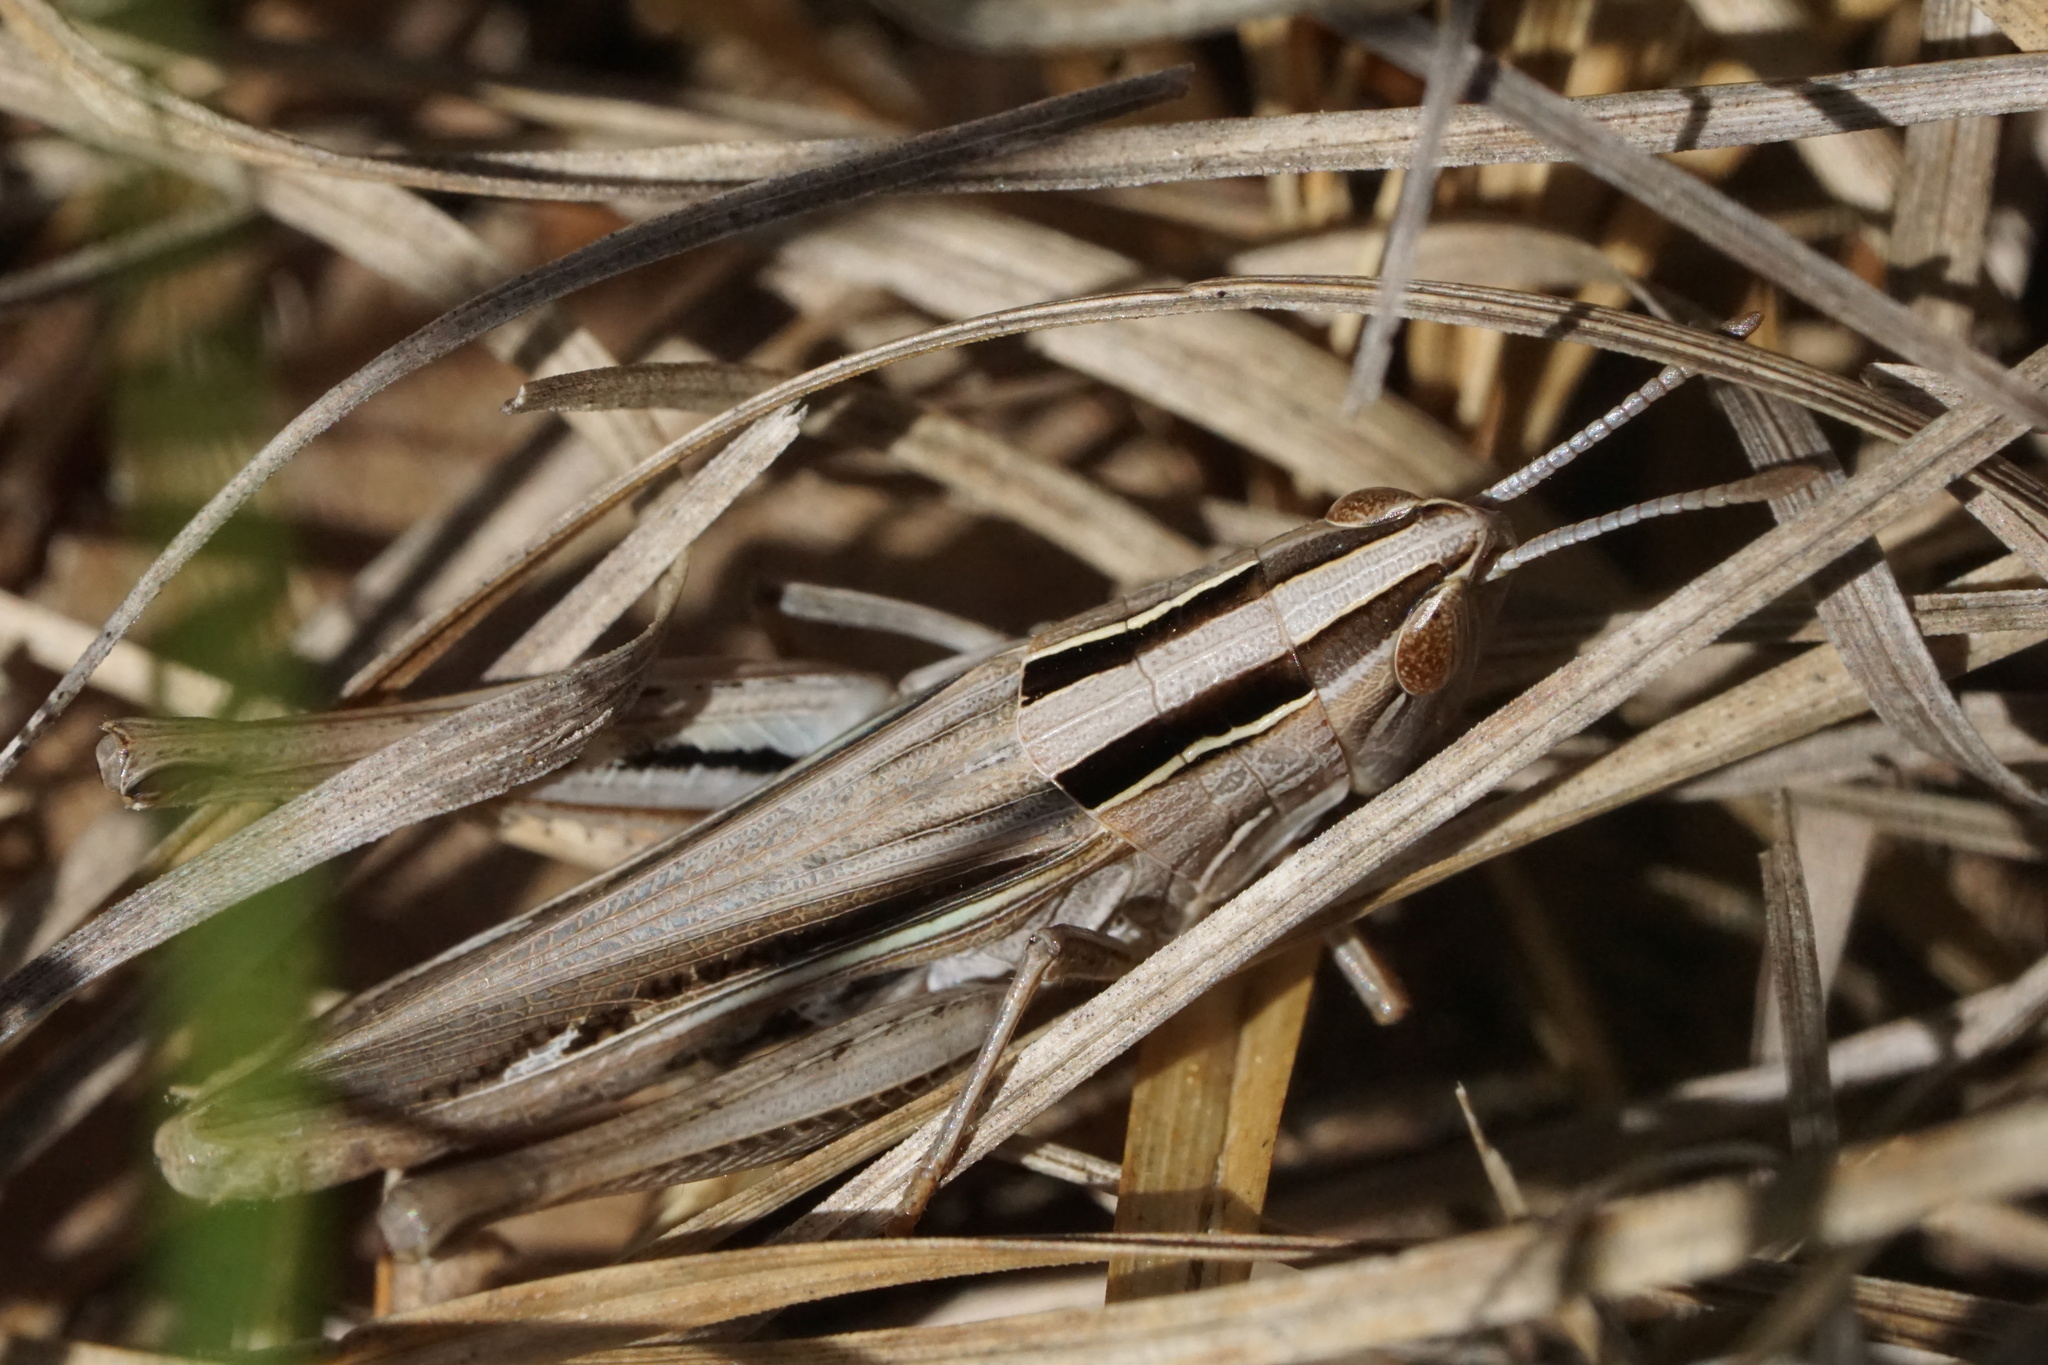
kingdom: Animalia
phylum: Arthropoda
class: Insecta
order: Orthoptera
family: Acrididae
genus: Eritettix
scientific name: Eritettix simplex
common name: Velvet-striped grasshopper
